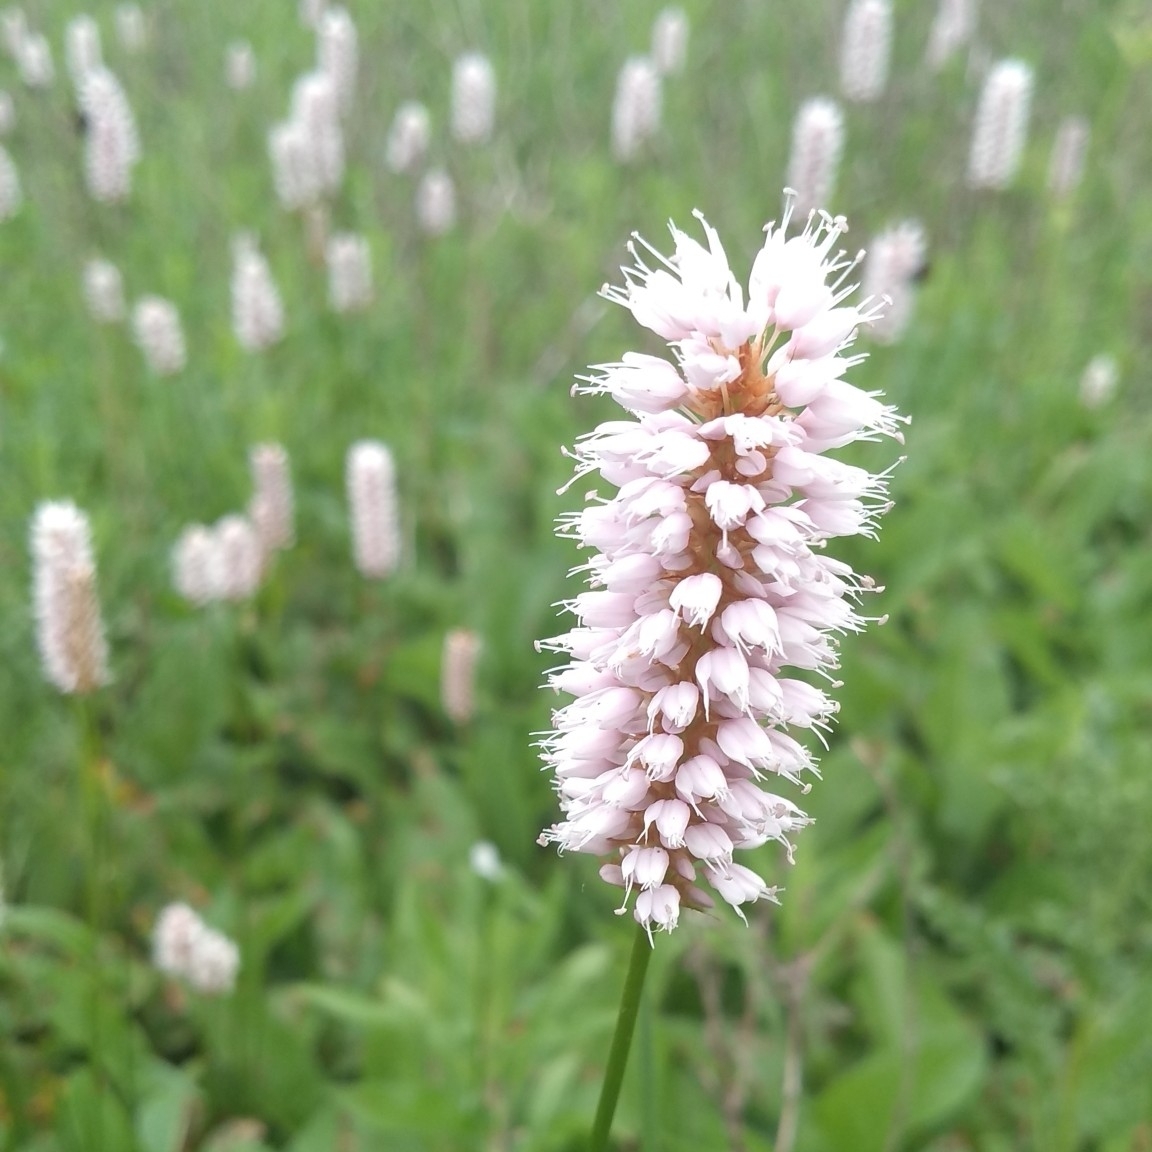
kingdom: Plantae
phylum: Tracheophyta
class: Magnoliopsida
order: Caryophyllales
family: Polygonaceae
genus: Bistorta
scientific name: Bistorta officinalis
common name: Common bistort
